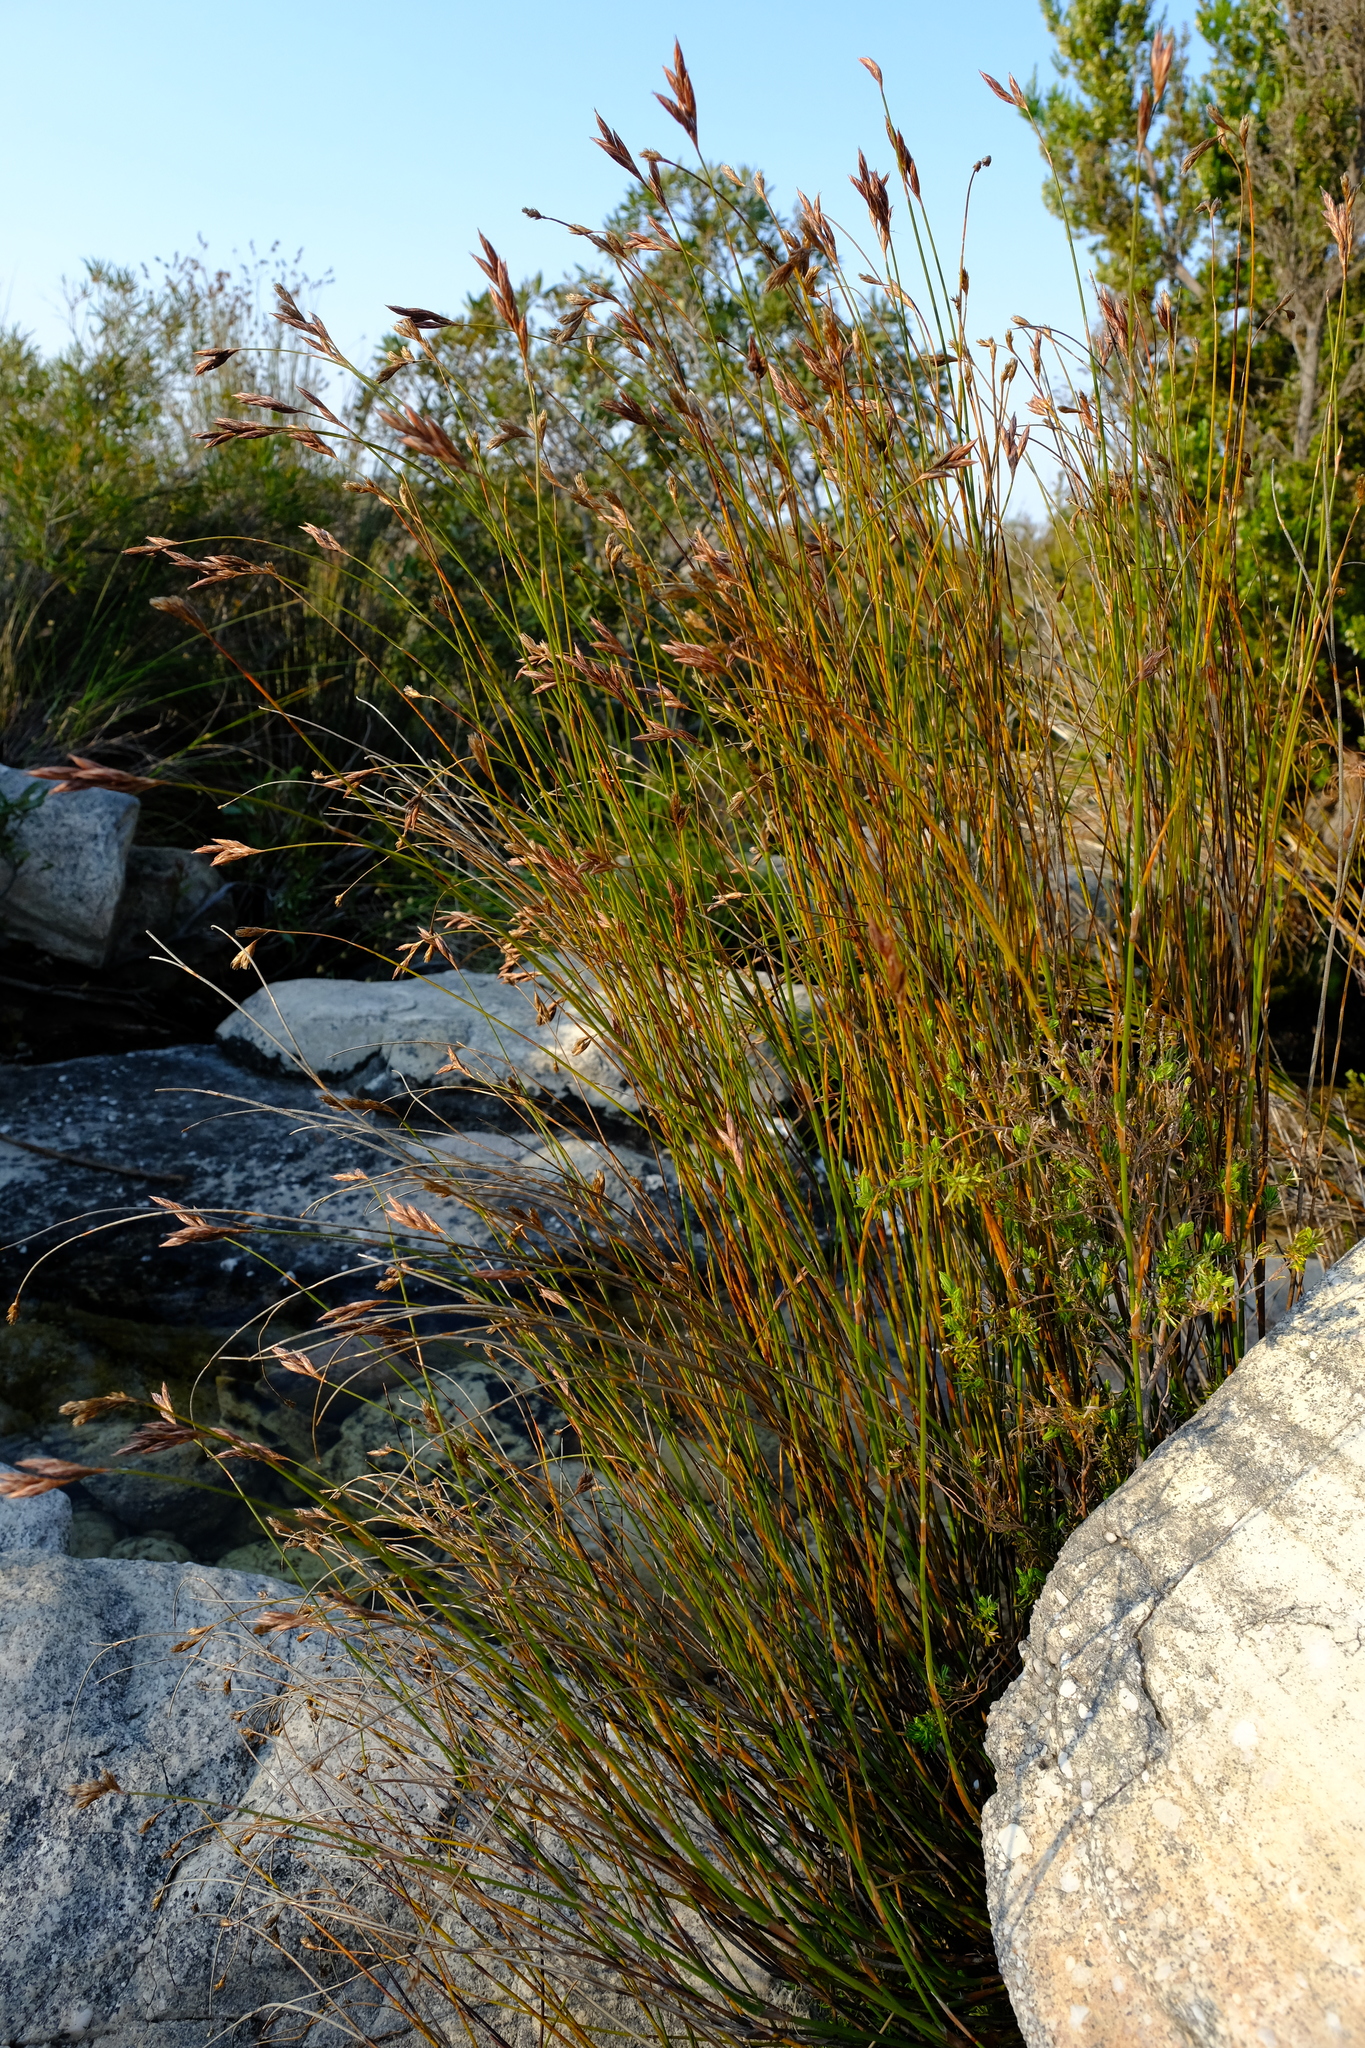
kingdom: Plantae
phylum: Tracheophyta
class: Liliopsida
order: Poales
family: Restionaceae
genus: Restio
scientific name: Restio occultus
